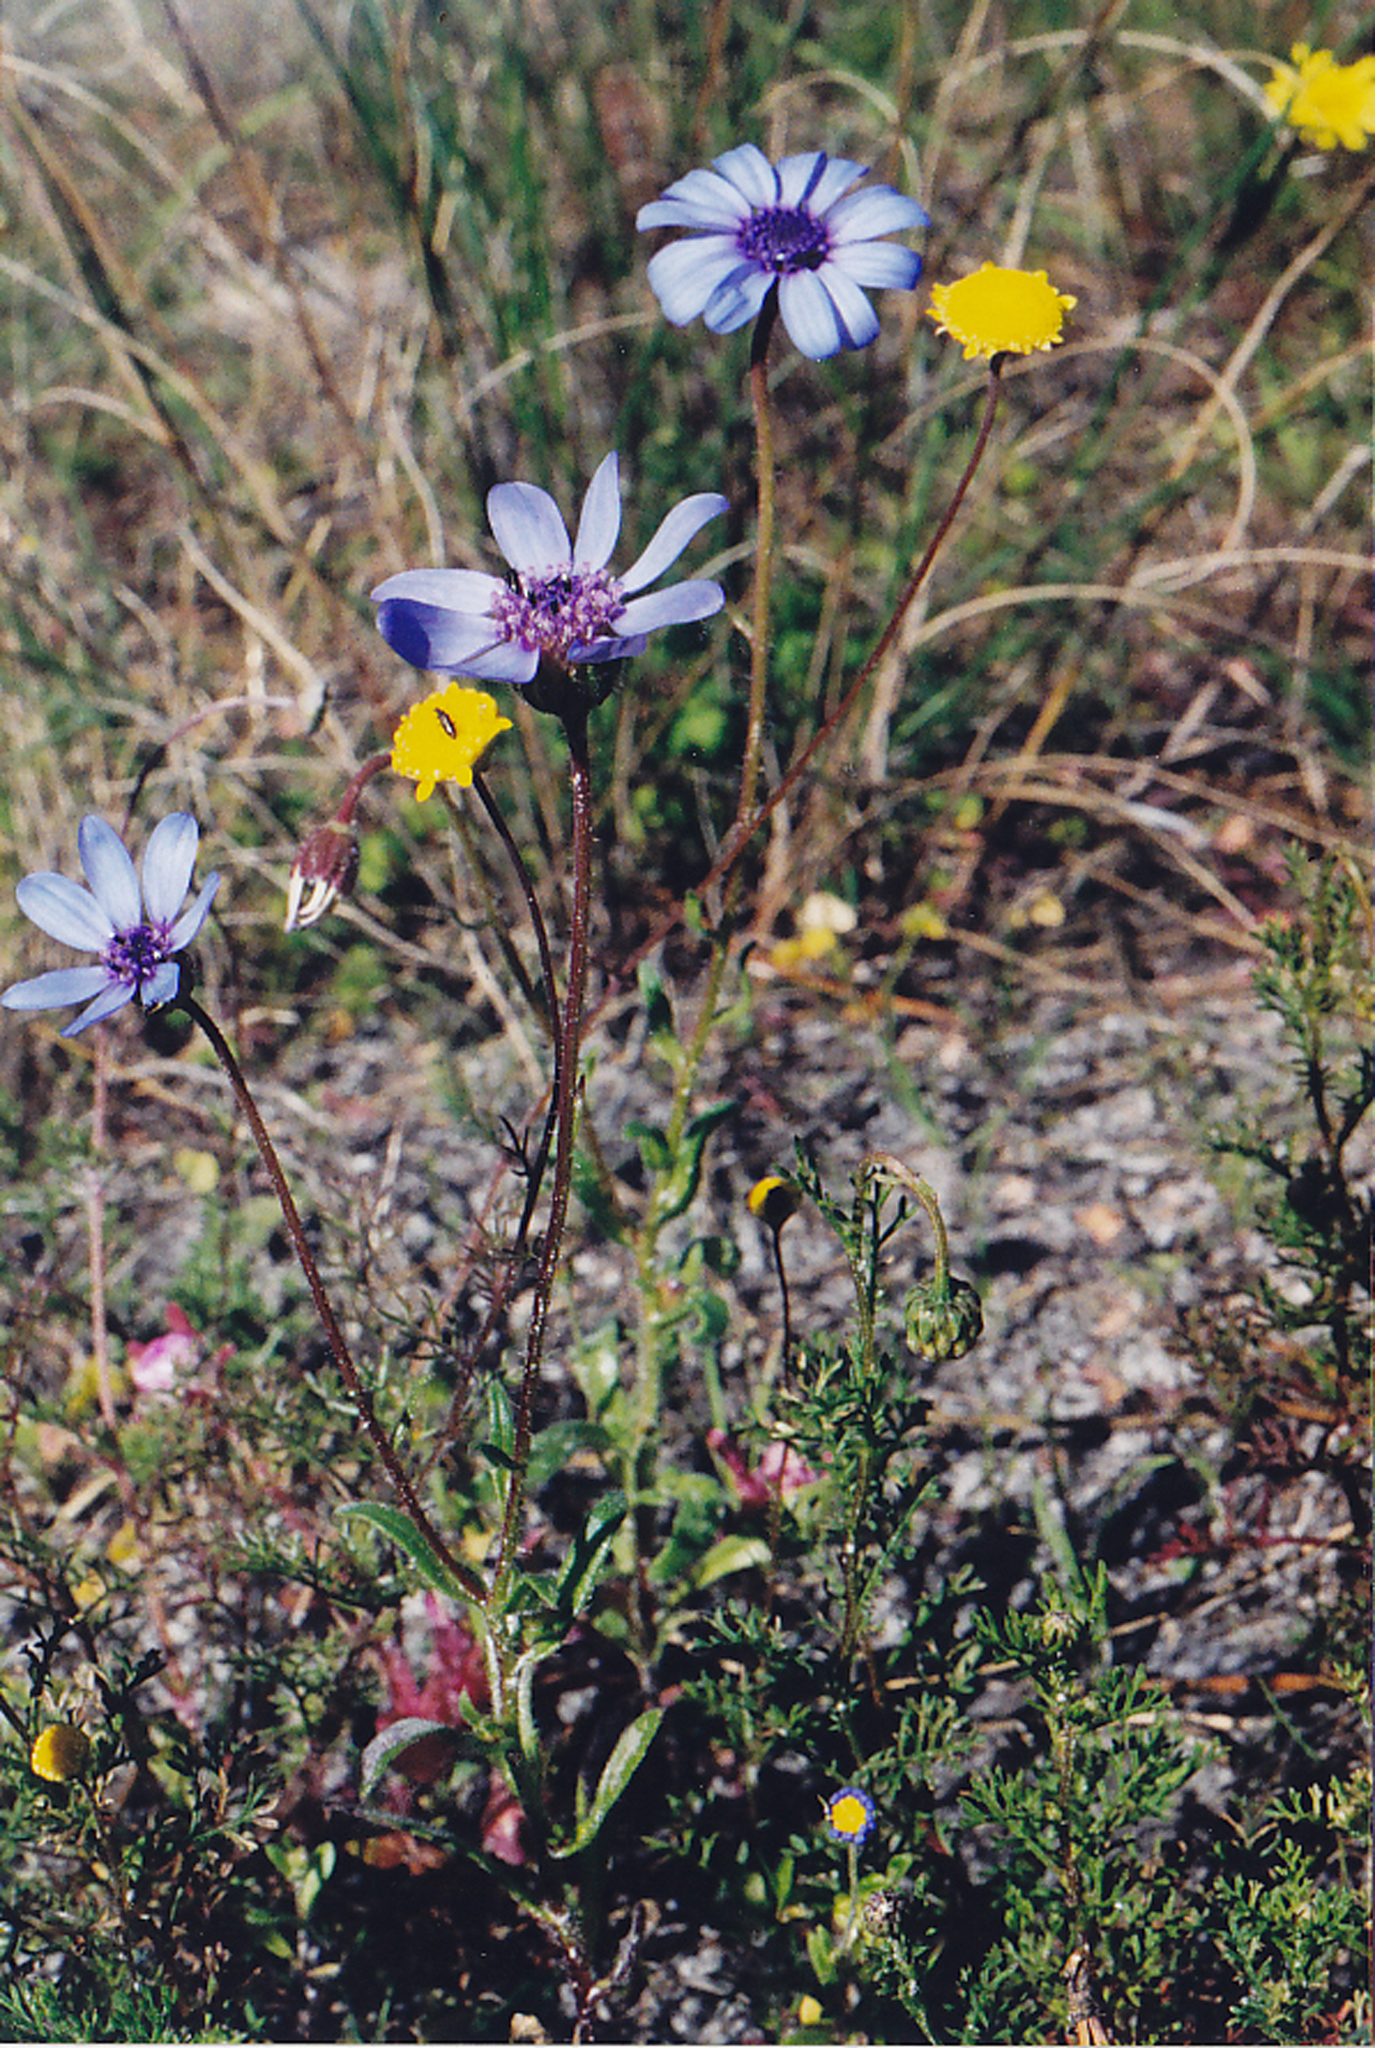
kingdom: Plantae
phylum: Tracheophyta
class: Magnoliopsida
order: Asterales
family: Asteraceae
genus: Felicia
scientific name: Felicia heterophylla
